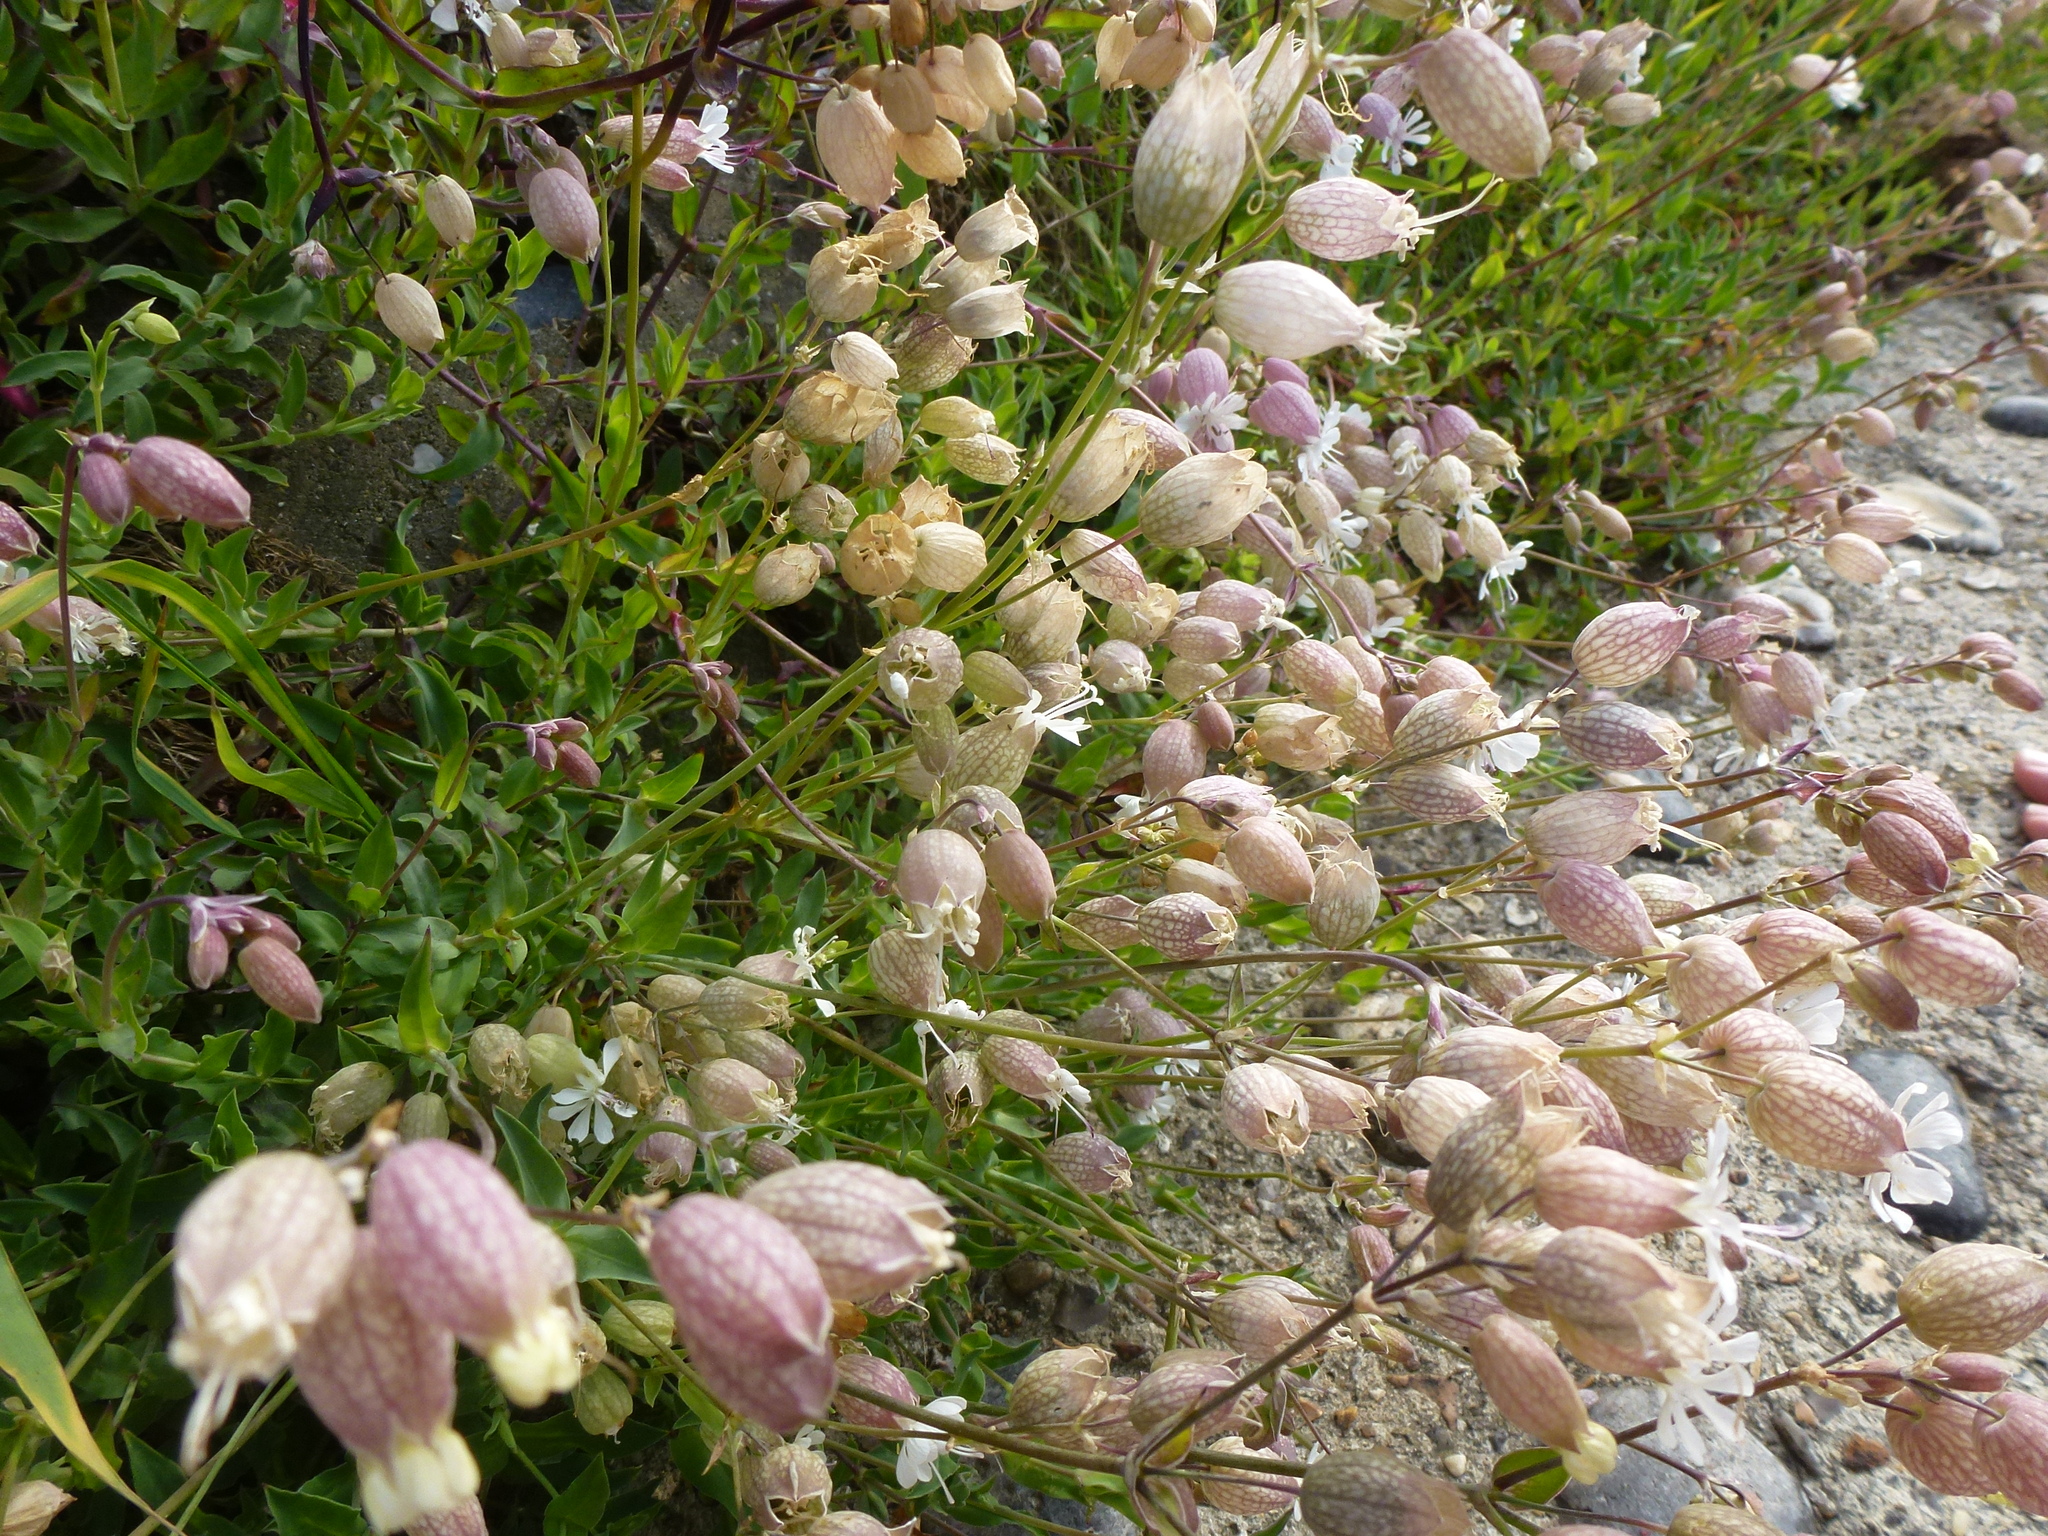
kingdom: Plantae
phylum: Tracheophyta
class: Magnoliopsida
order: Caryophyllales
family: Caryophyllaceae
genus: Silene
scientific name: Silene vulgaris
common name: Bladder campion
